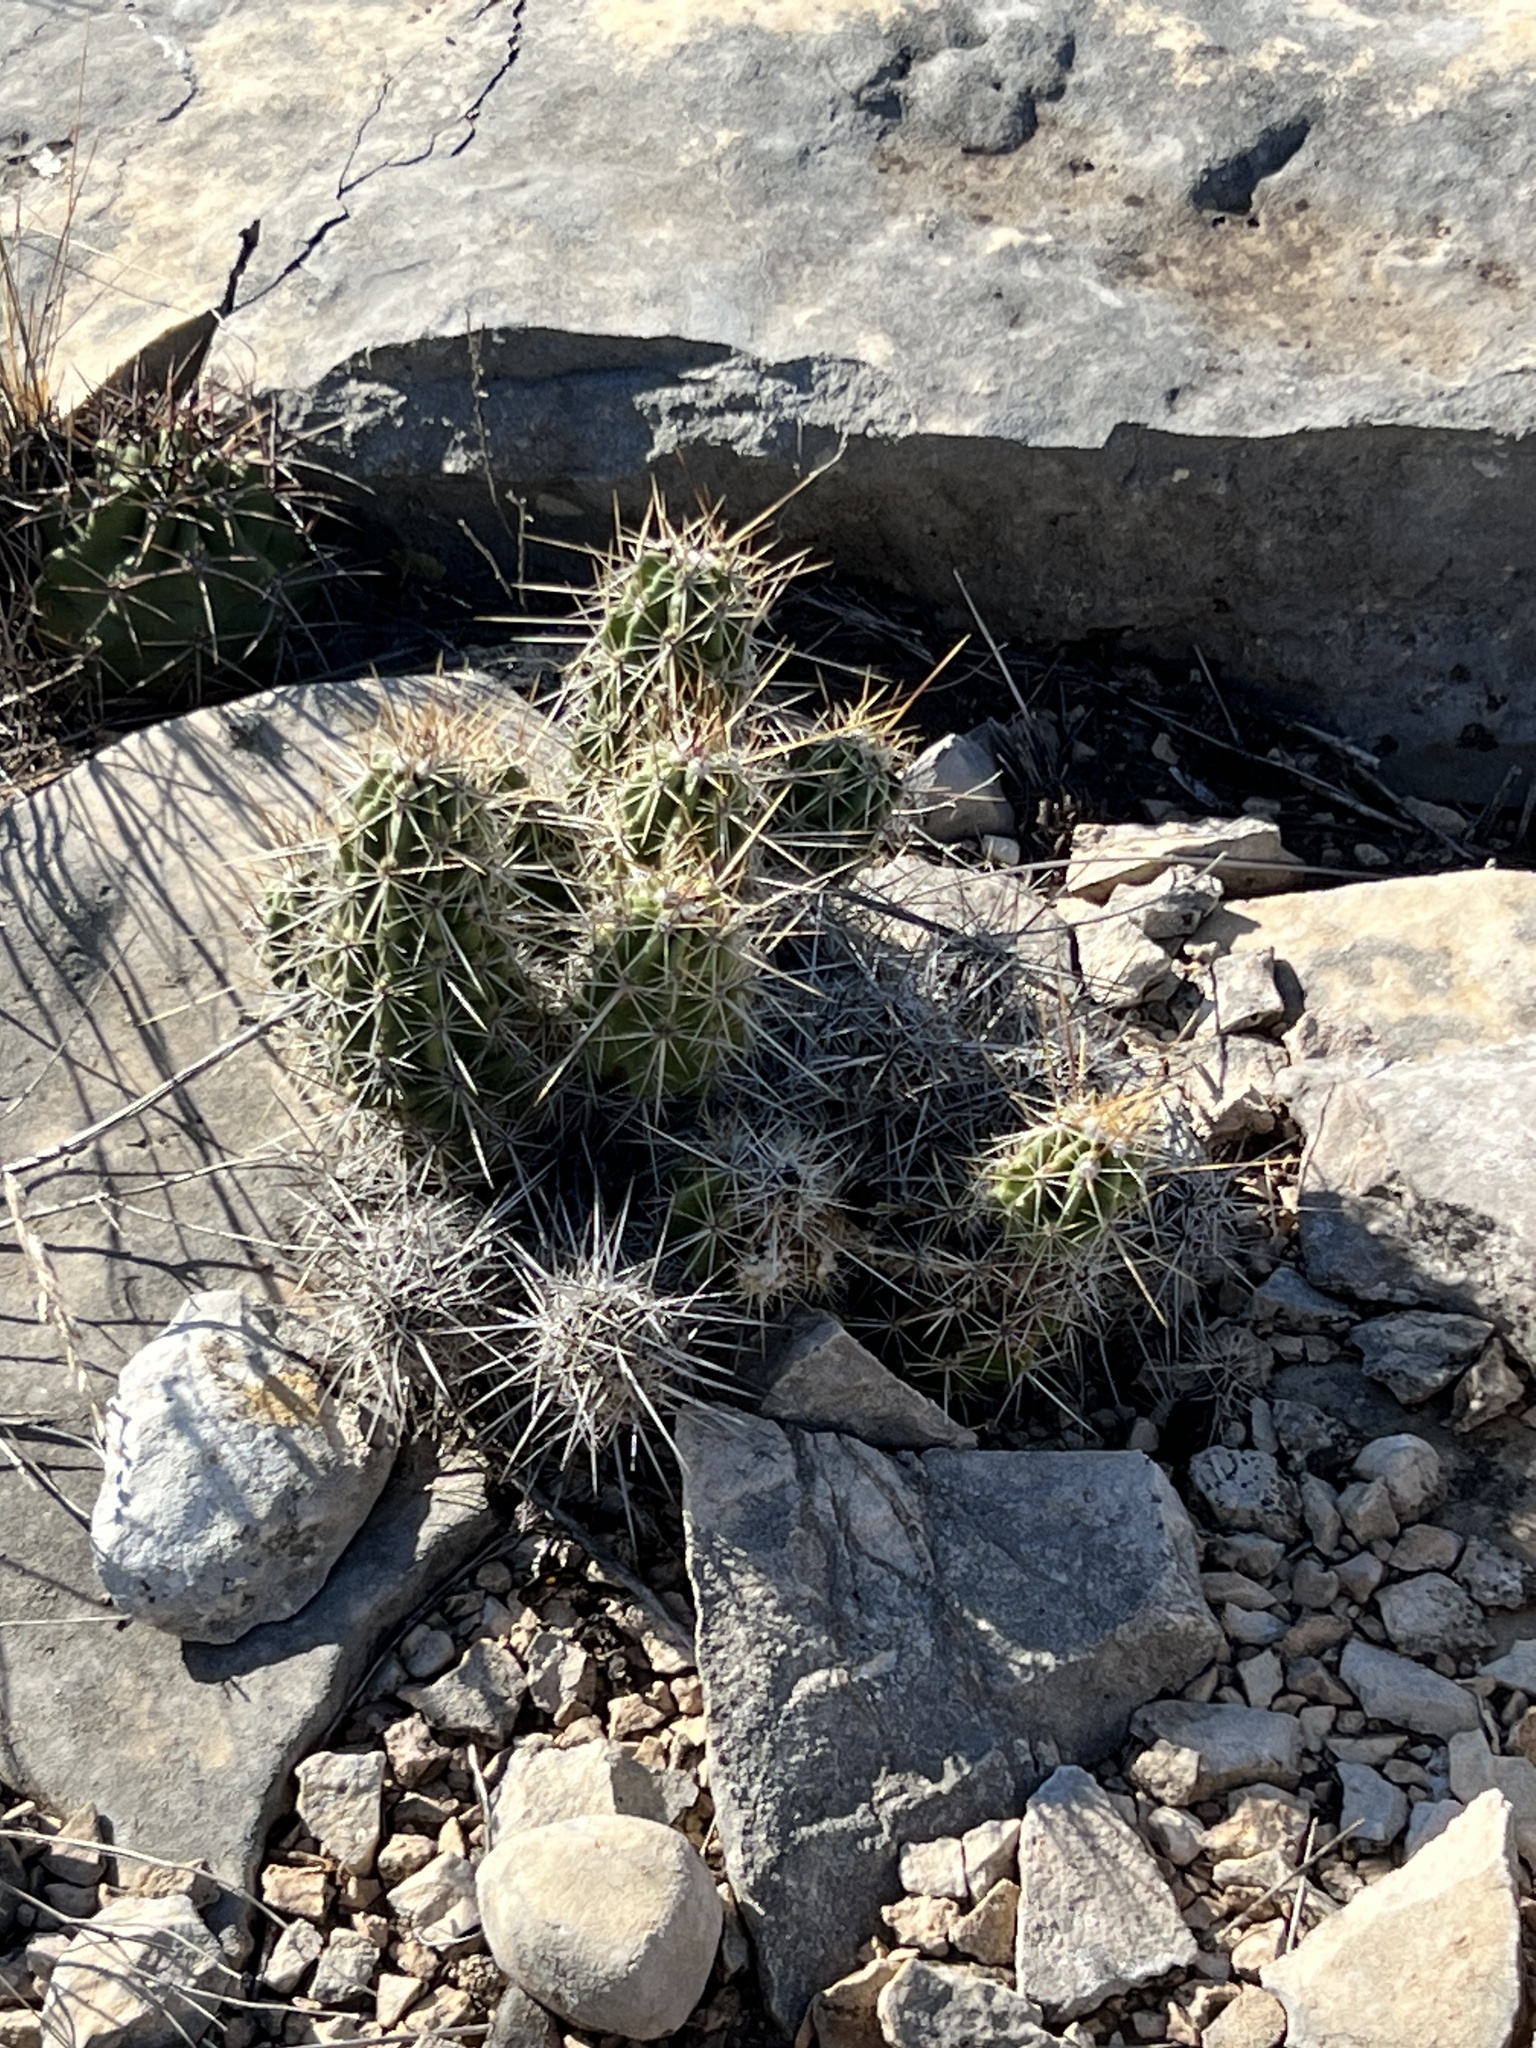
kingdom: Plantae
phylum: Tracheophyta
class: Magnoliopsida
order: Caryophyllales
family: Cactaceae
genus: Echinocereus
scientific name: Echinocereus enneacanthus
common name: Pitaya
